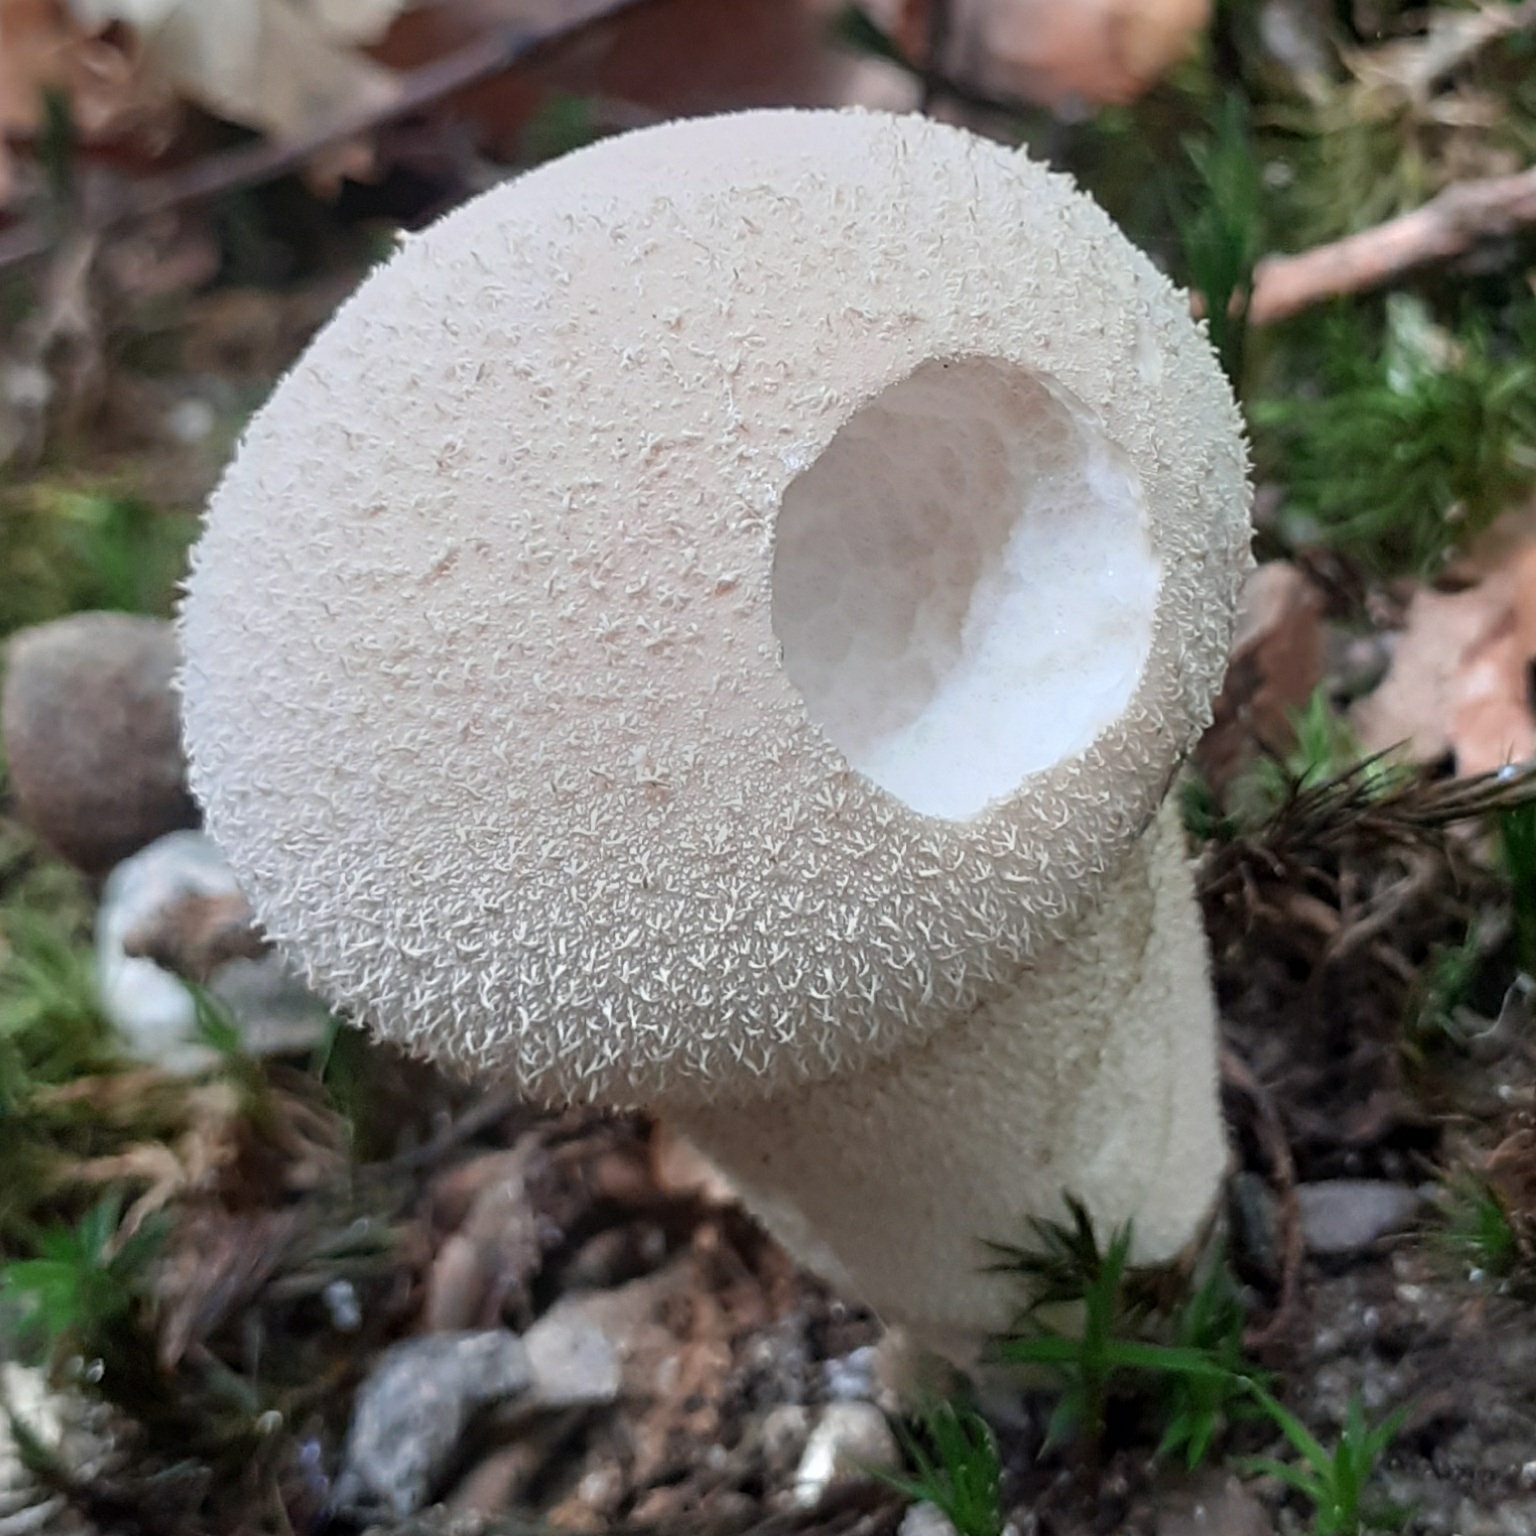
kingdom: Fungi
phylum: Basidiomycota
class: Agaricomycetes
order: Agaricales
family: Lycoperdaceae
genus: Lycoperdon
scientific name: Lycoperdon perlatum
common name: Common puffball
